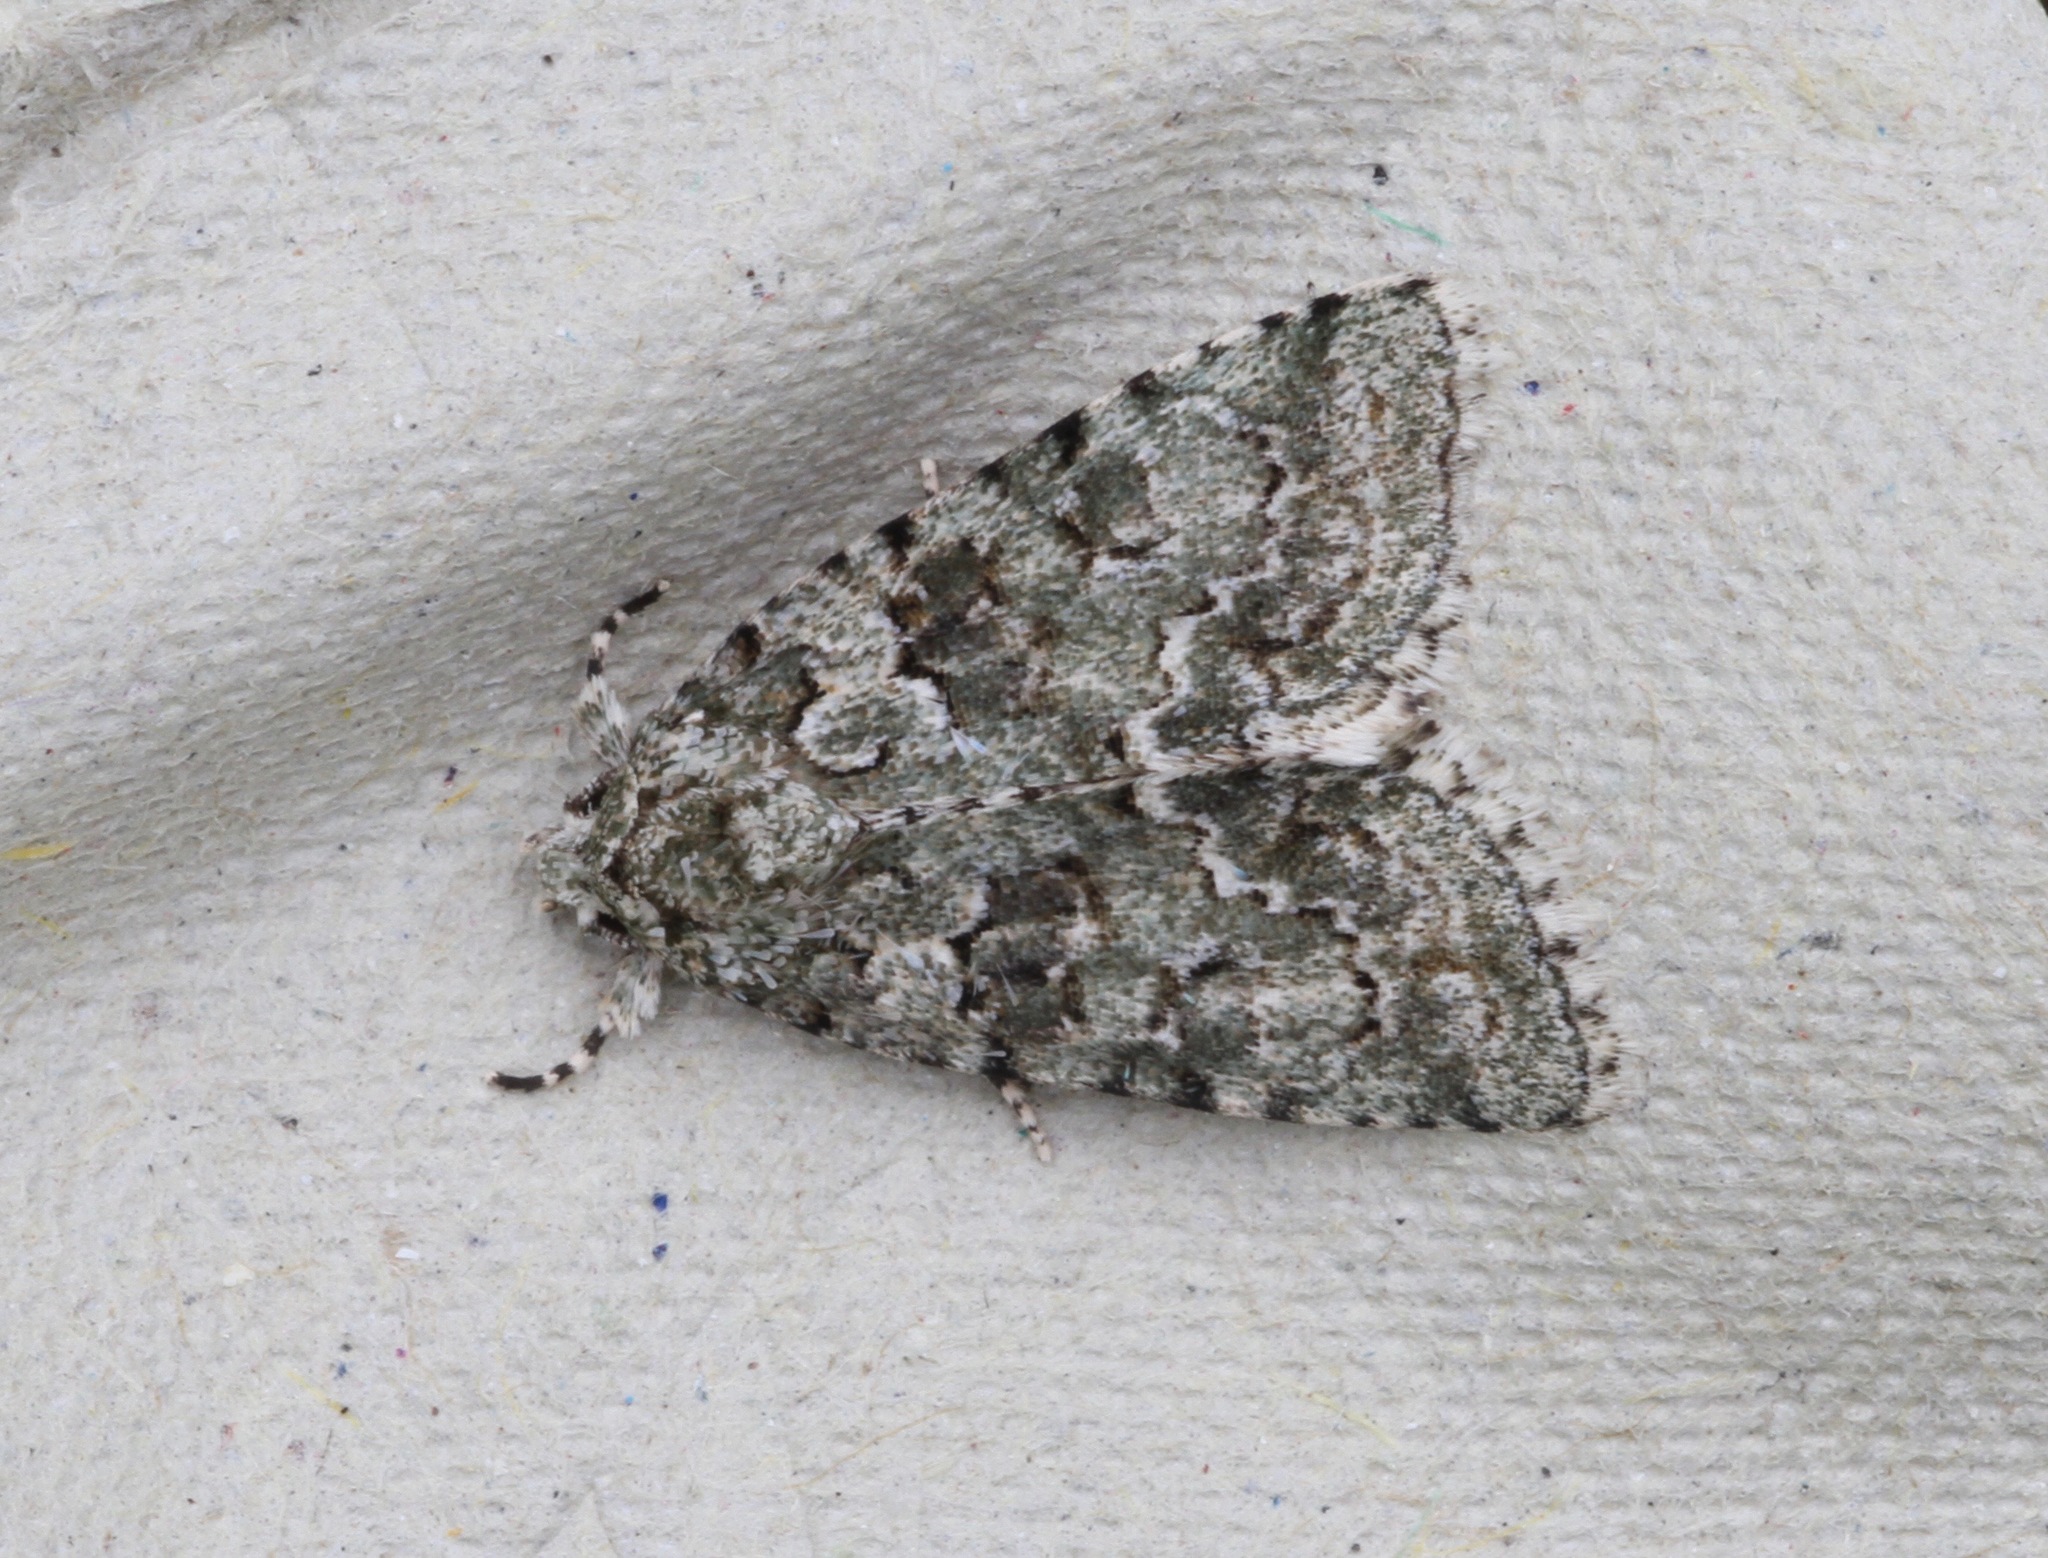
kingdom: Animalia
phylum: Arthropoda
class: Insecta
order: Lepidoptera
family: Noctuidae
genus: Nyctobrya
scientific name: Nyctobrya muralis
